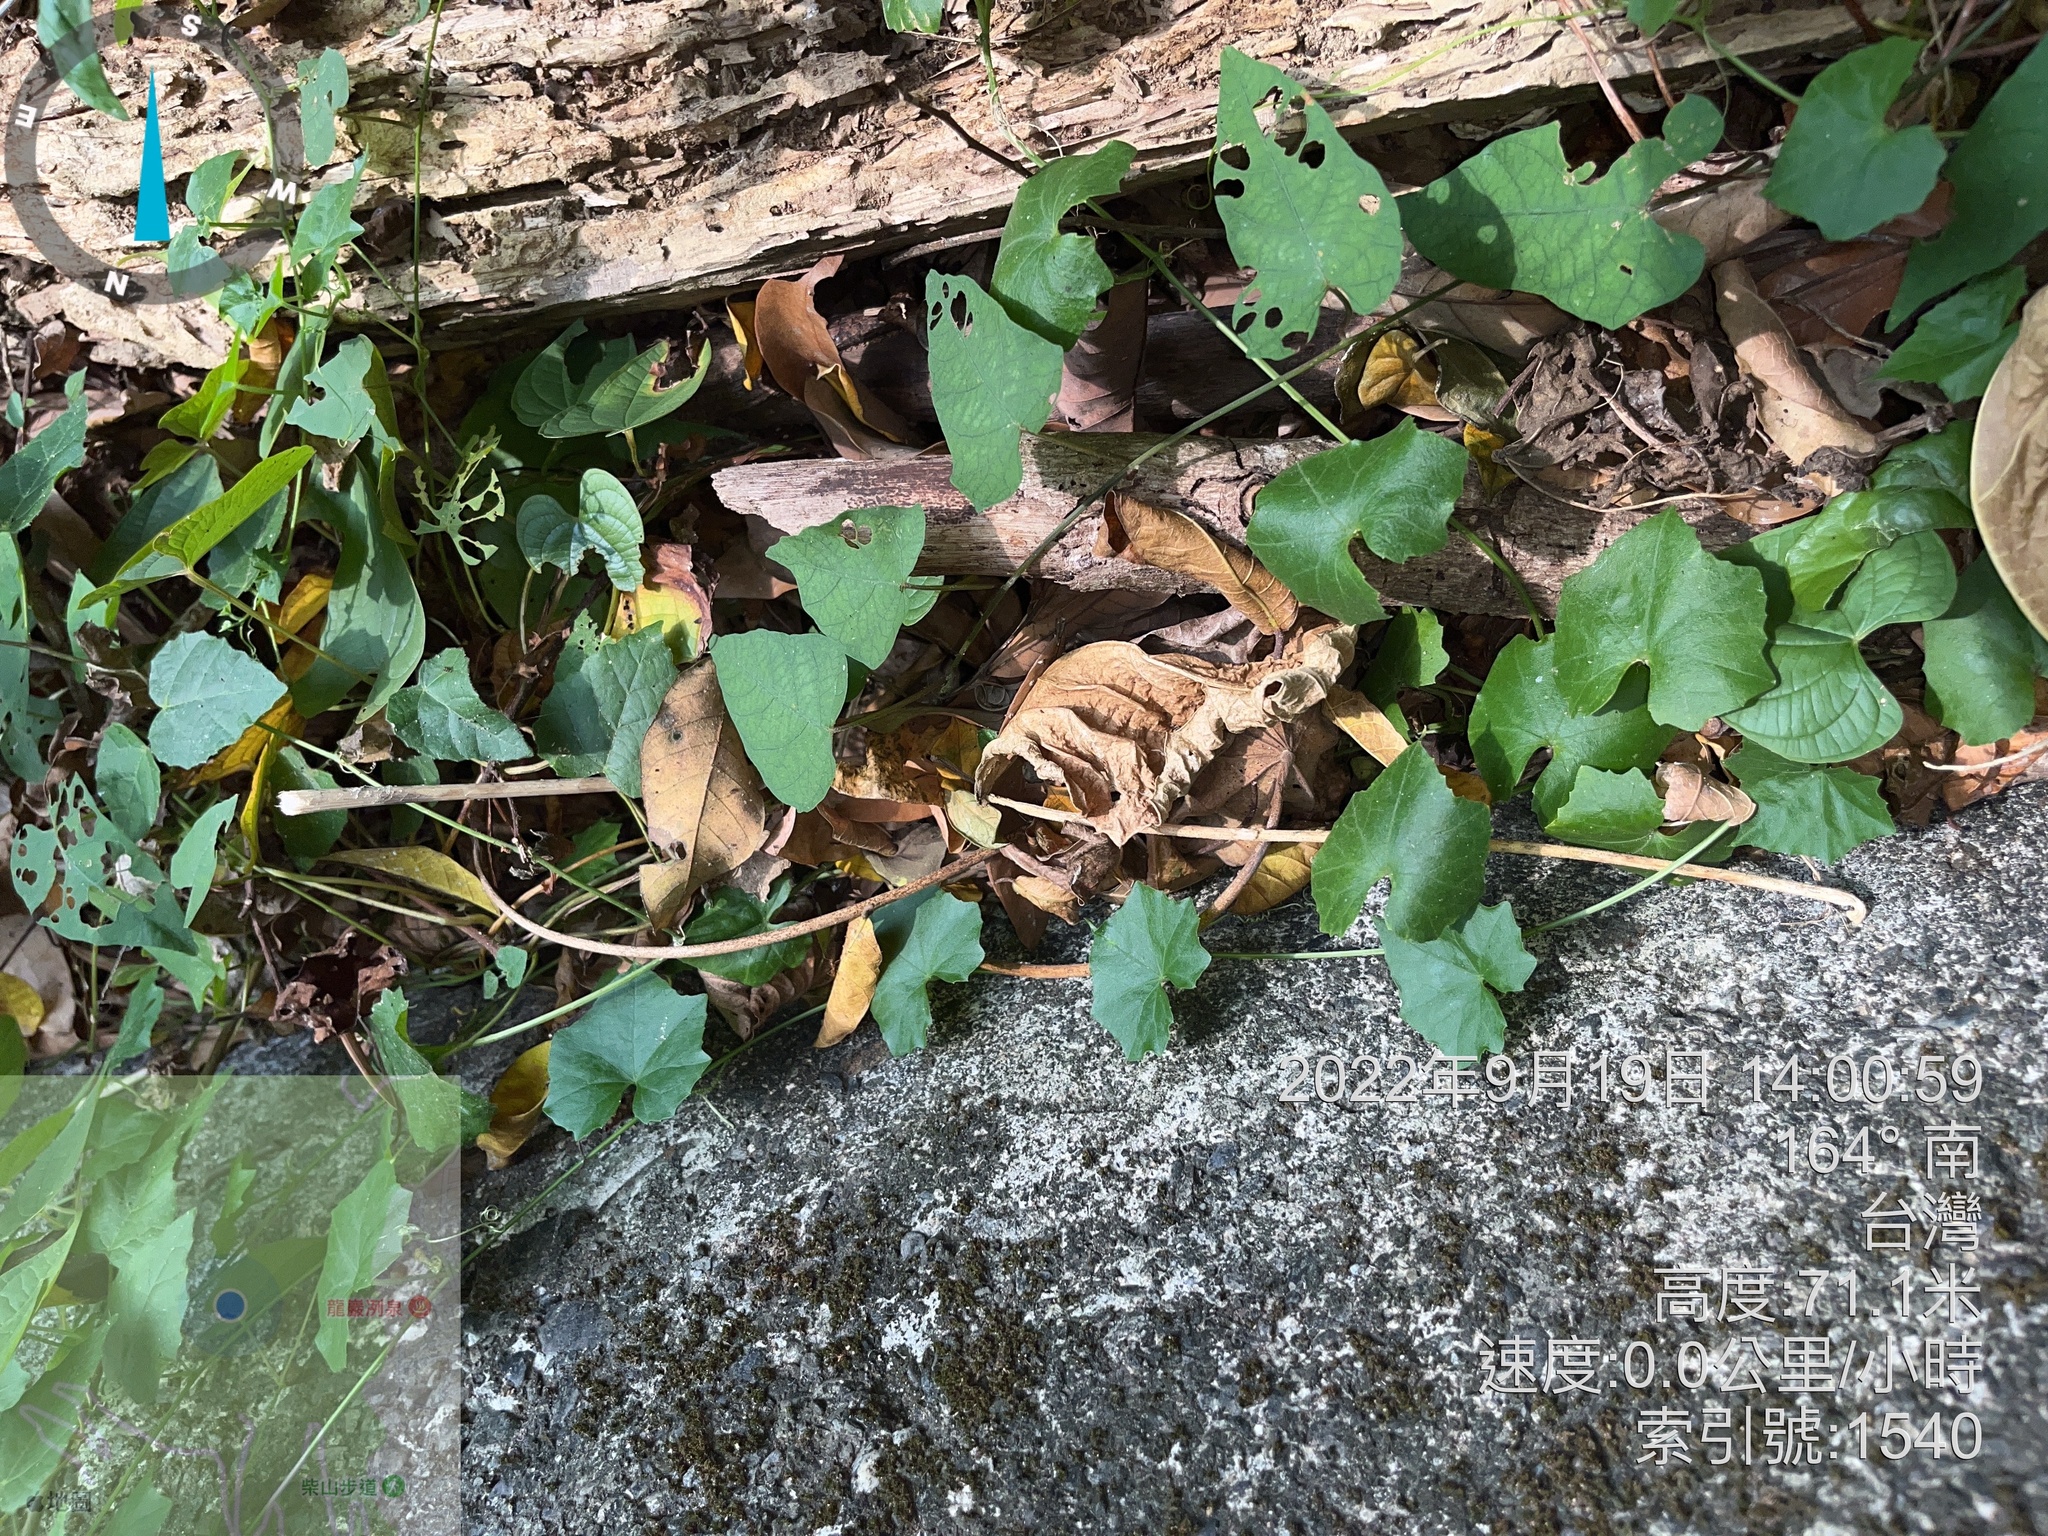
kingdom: Plantae
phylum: Tracheophyta
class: Magnoliopsida
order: Cucurbitales
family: Cucurbitaceae
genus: Melothria
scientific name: Melothria pendula
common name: Creeping-cucumber
